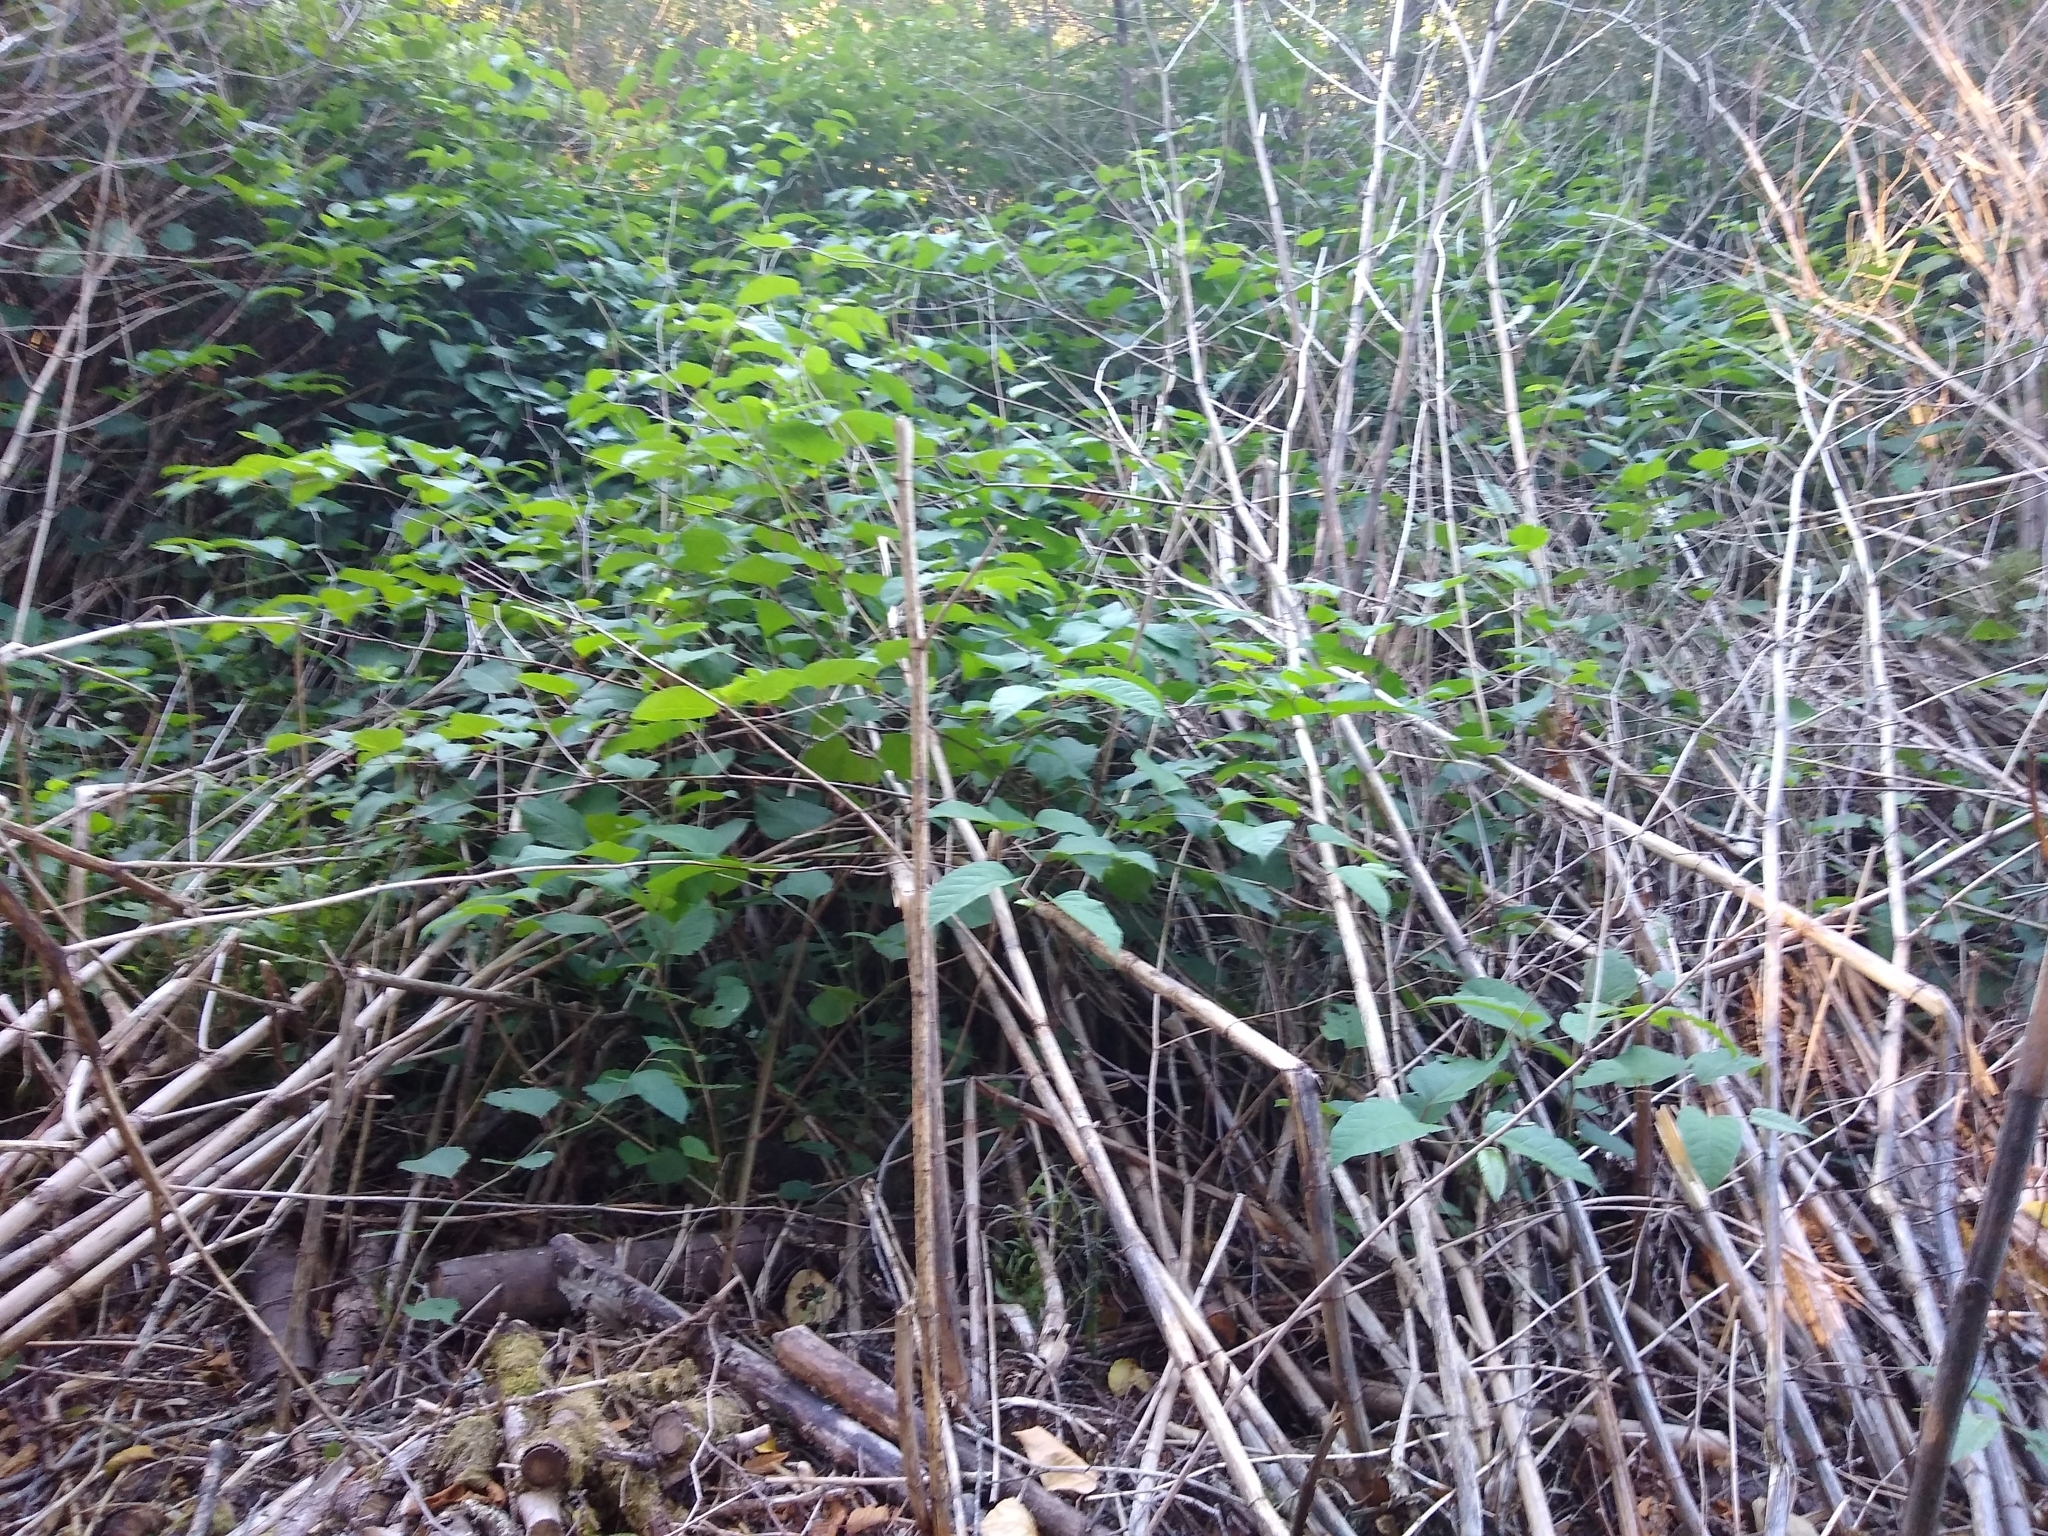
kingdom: Plantae
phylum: Tracheophyta
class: Magnoliopsida
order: Caryophyllales
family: Polygonaceae
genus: Reynoutria
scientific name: Reynoutria japonica
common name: Japanese knotweed
